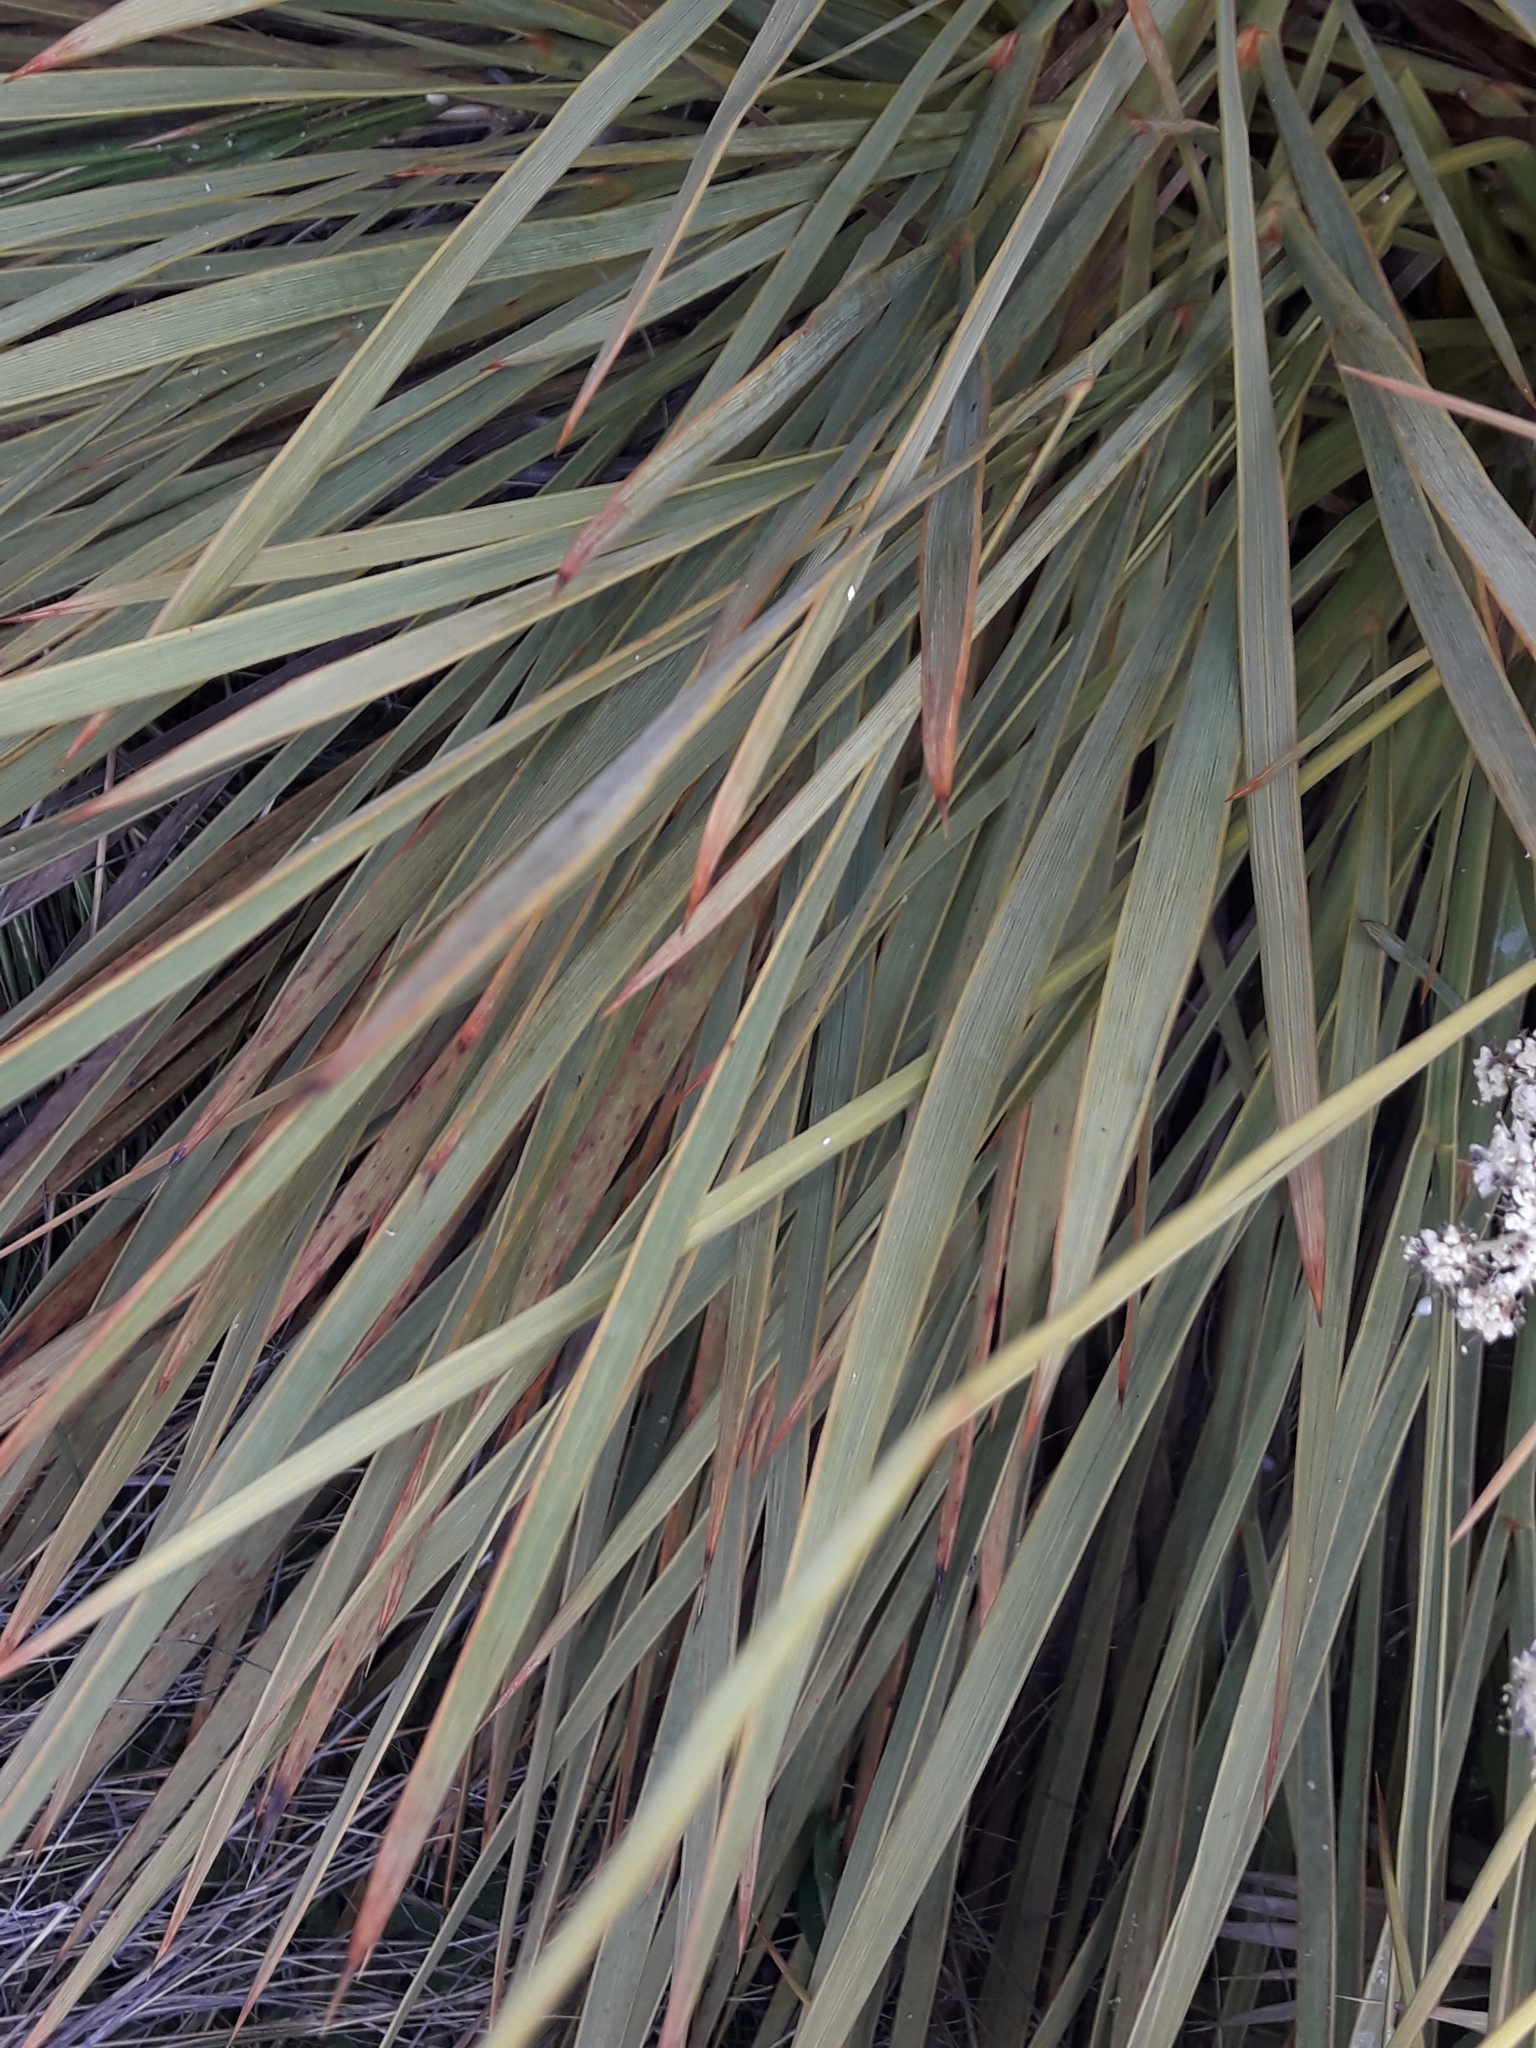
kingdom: Plantae
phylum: Tracheophyta
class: Magnoliopsida
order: Apiales
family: Apiaceae
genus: Aciphylla
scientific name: Aciphylla aurea
